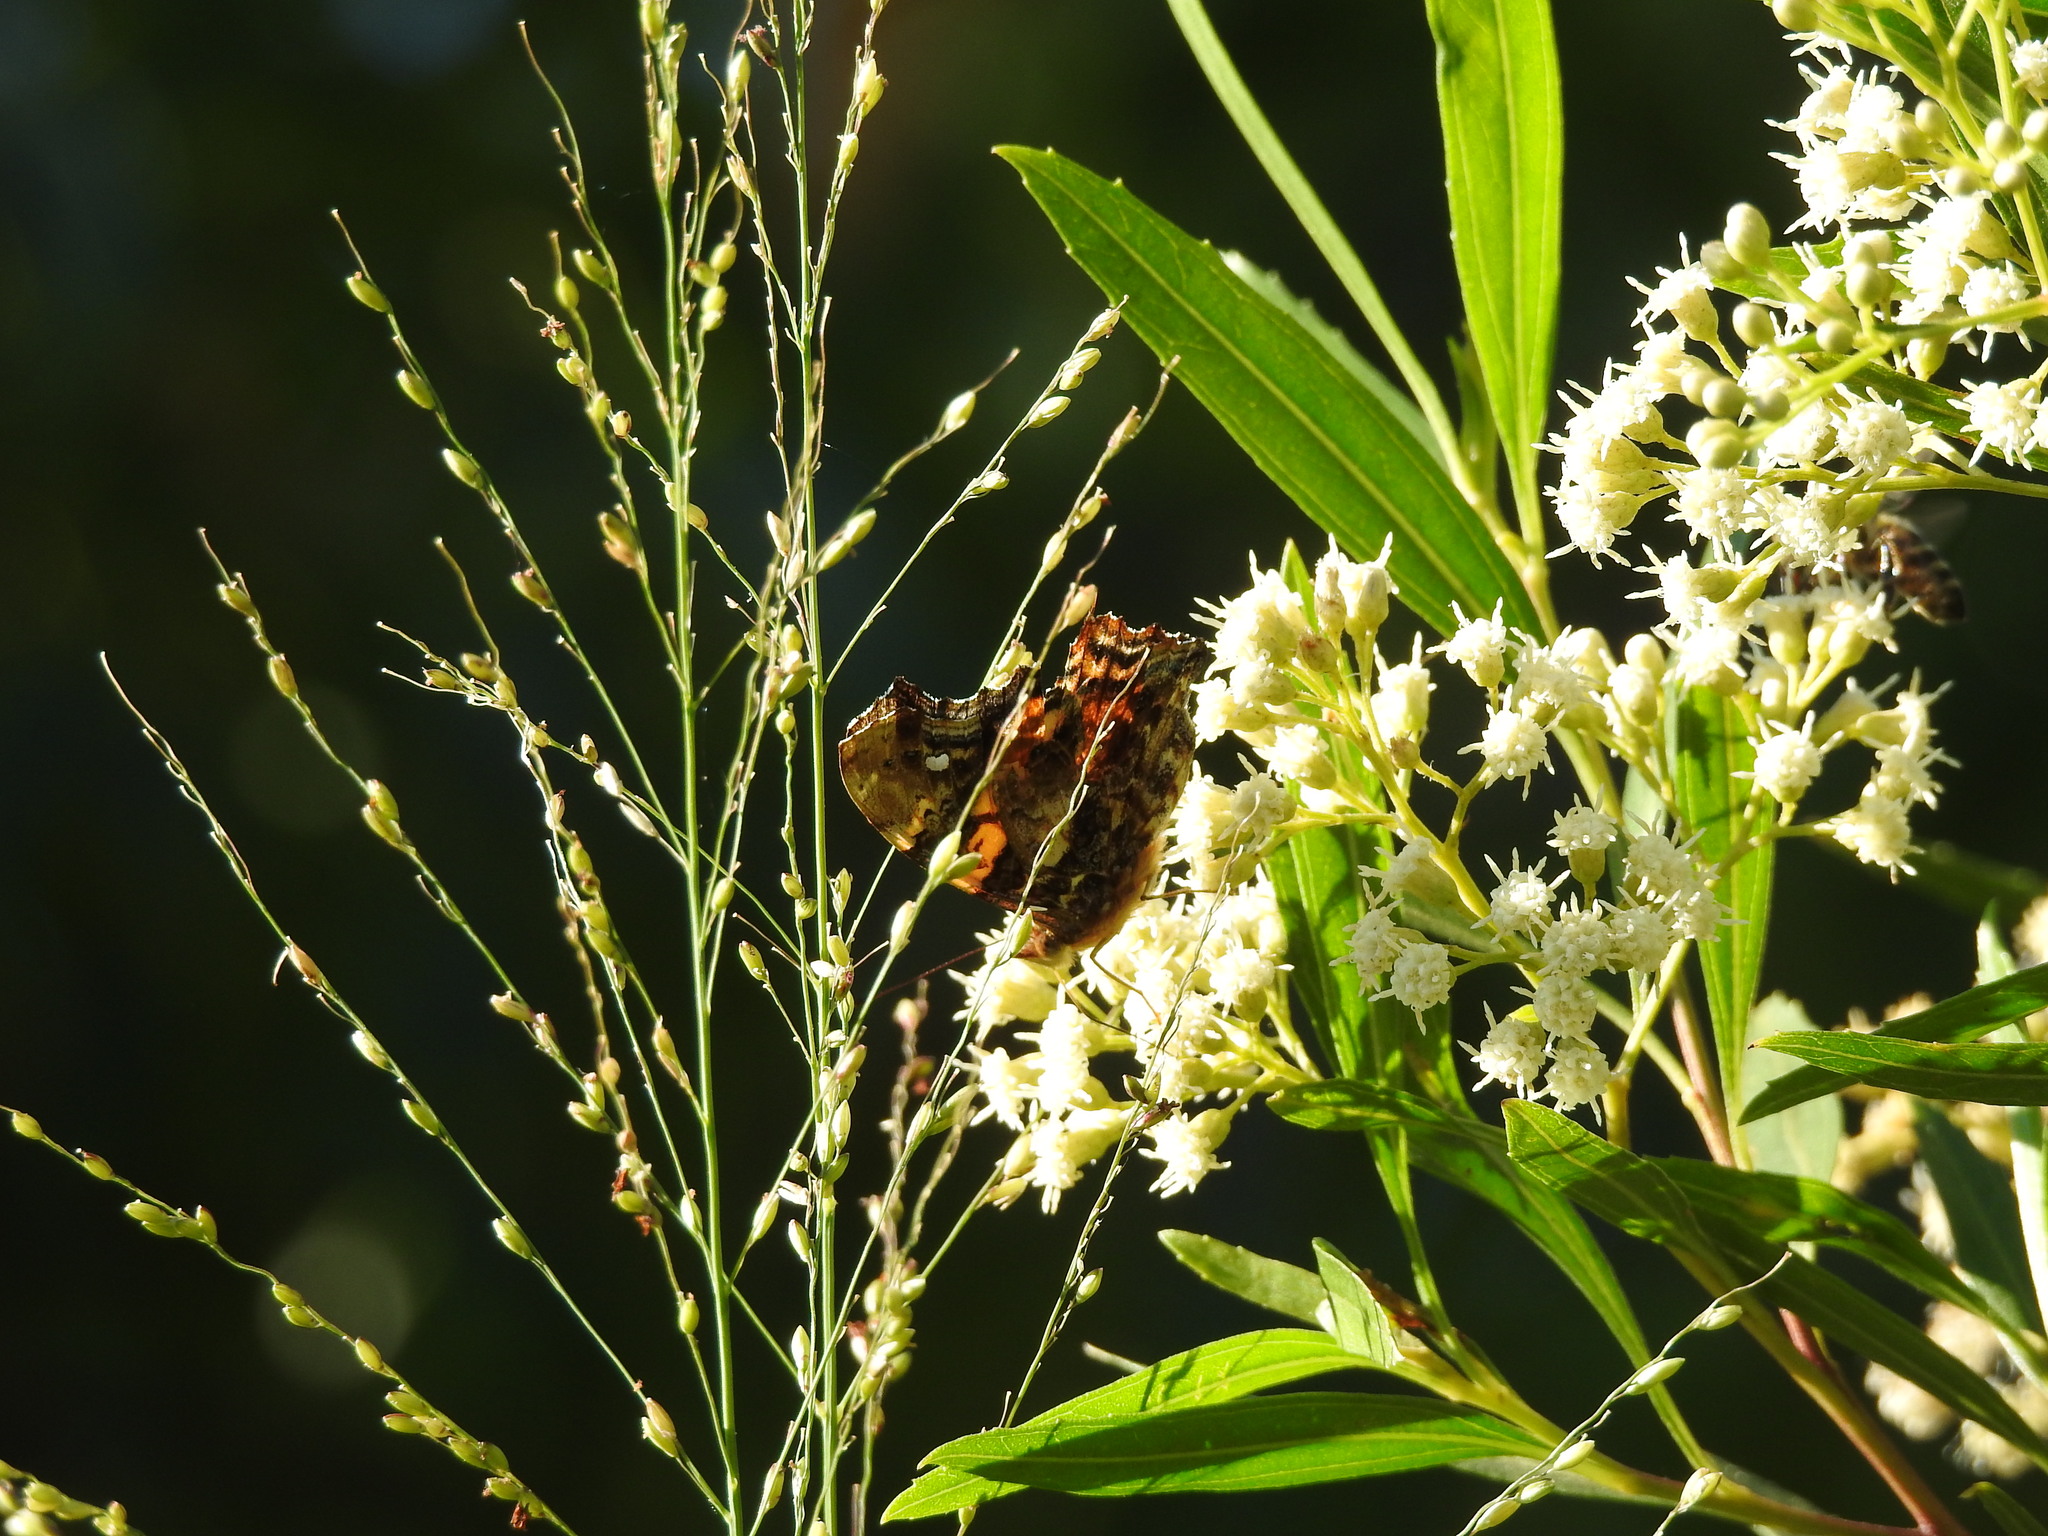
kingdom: Animalia
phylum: Arthropoda
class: Insecta
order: Lepidoptera
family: Nymphalidae
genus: Hypanartia
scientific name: Hypanartia bella
